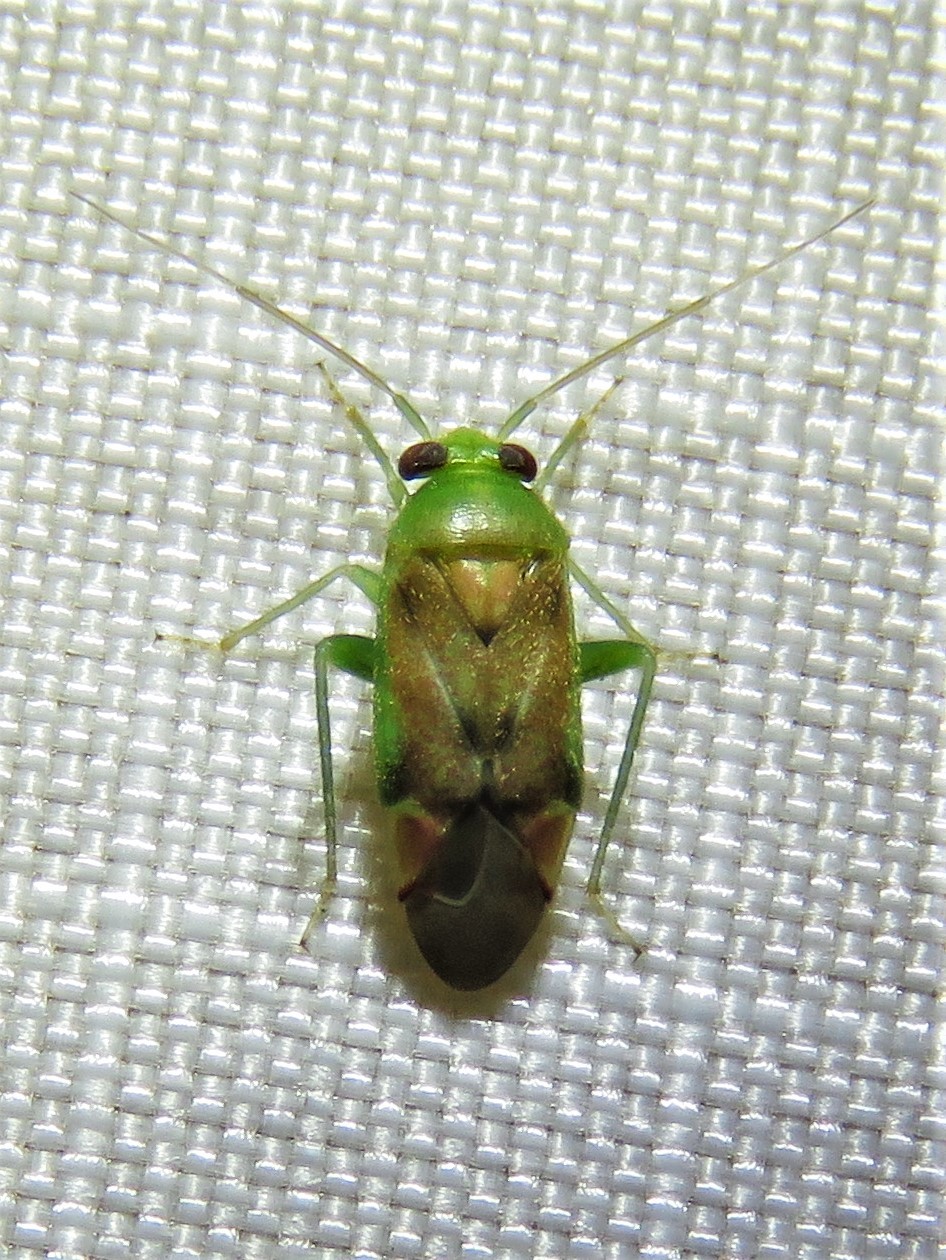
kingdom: Animalia
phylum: Arthropoda
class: Insecta
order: Hemiptera
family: Miridae
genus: Dichrooscytus
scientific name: Dichrooscytus
